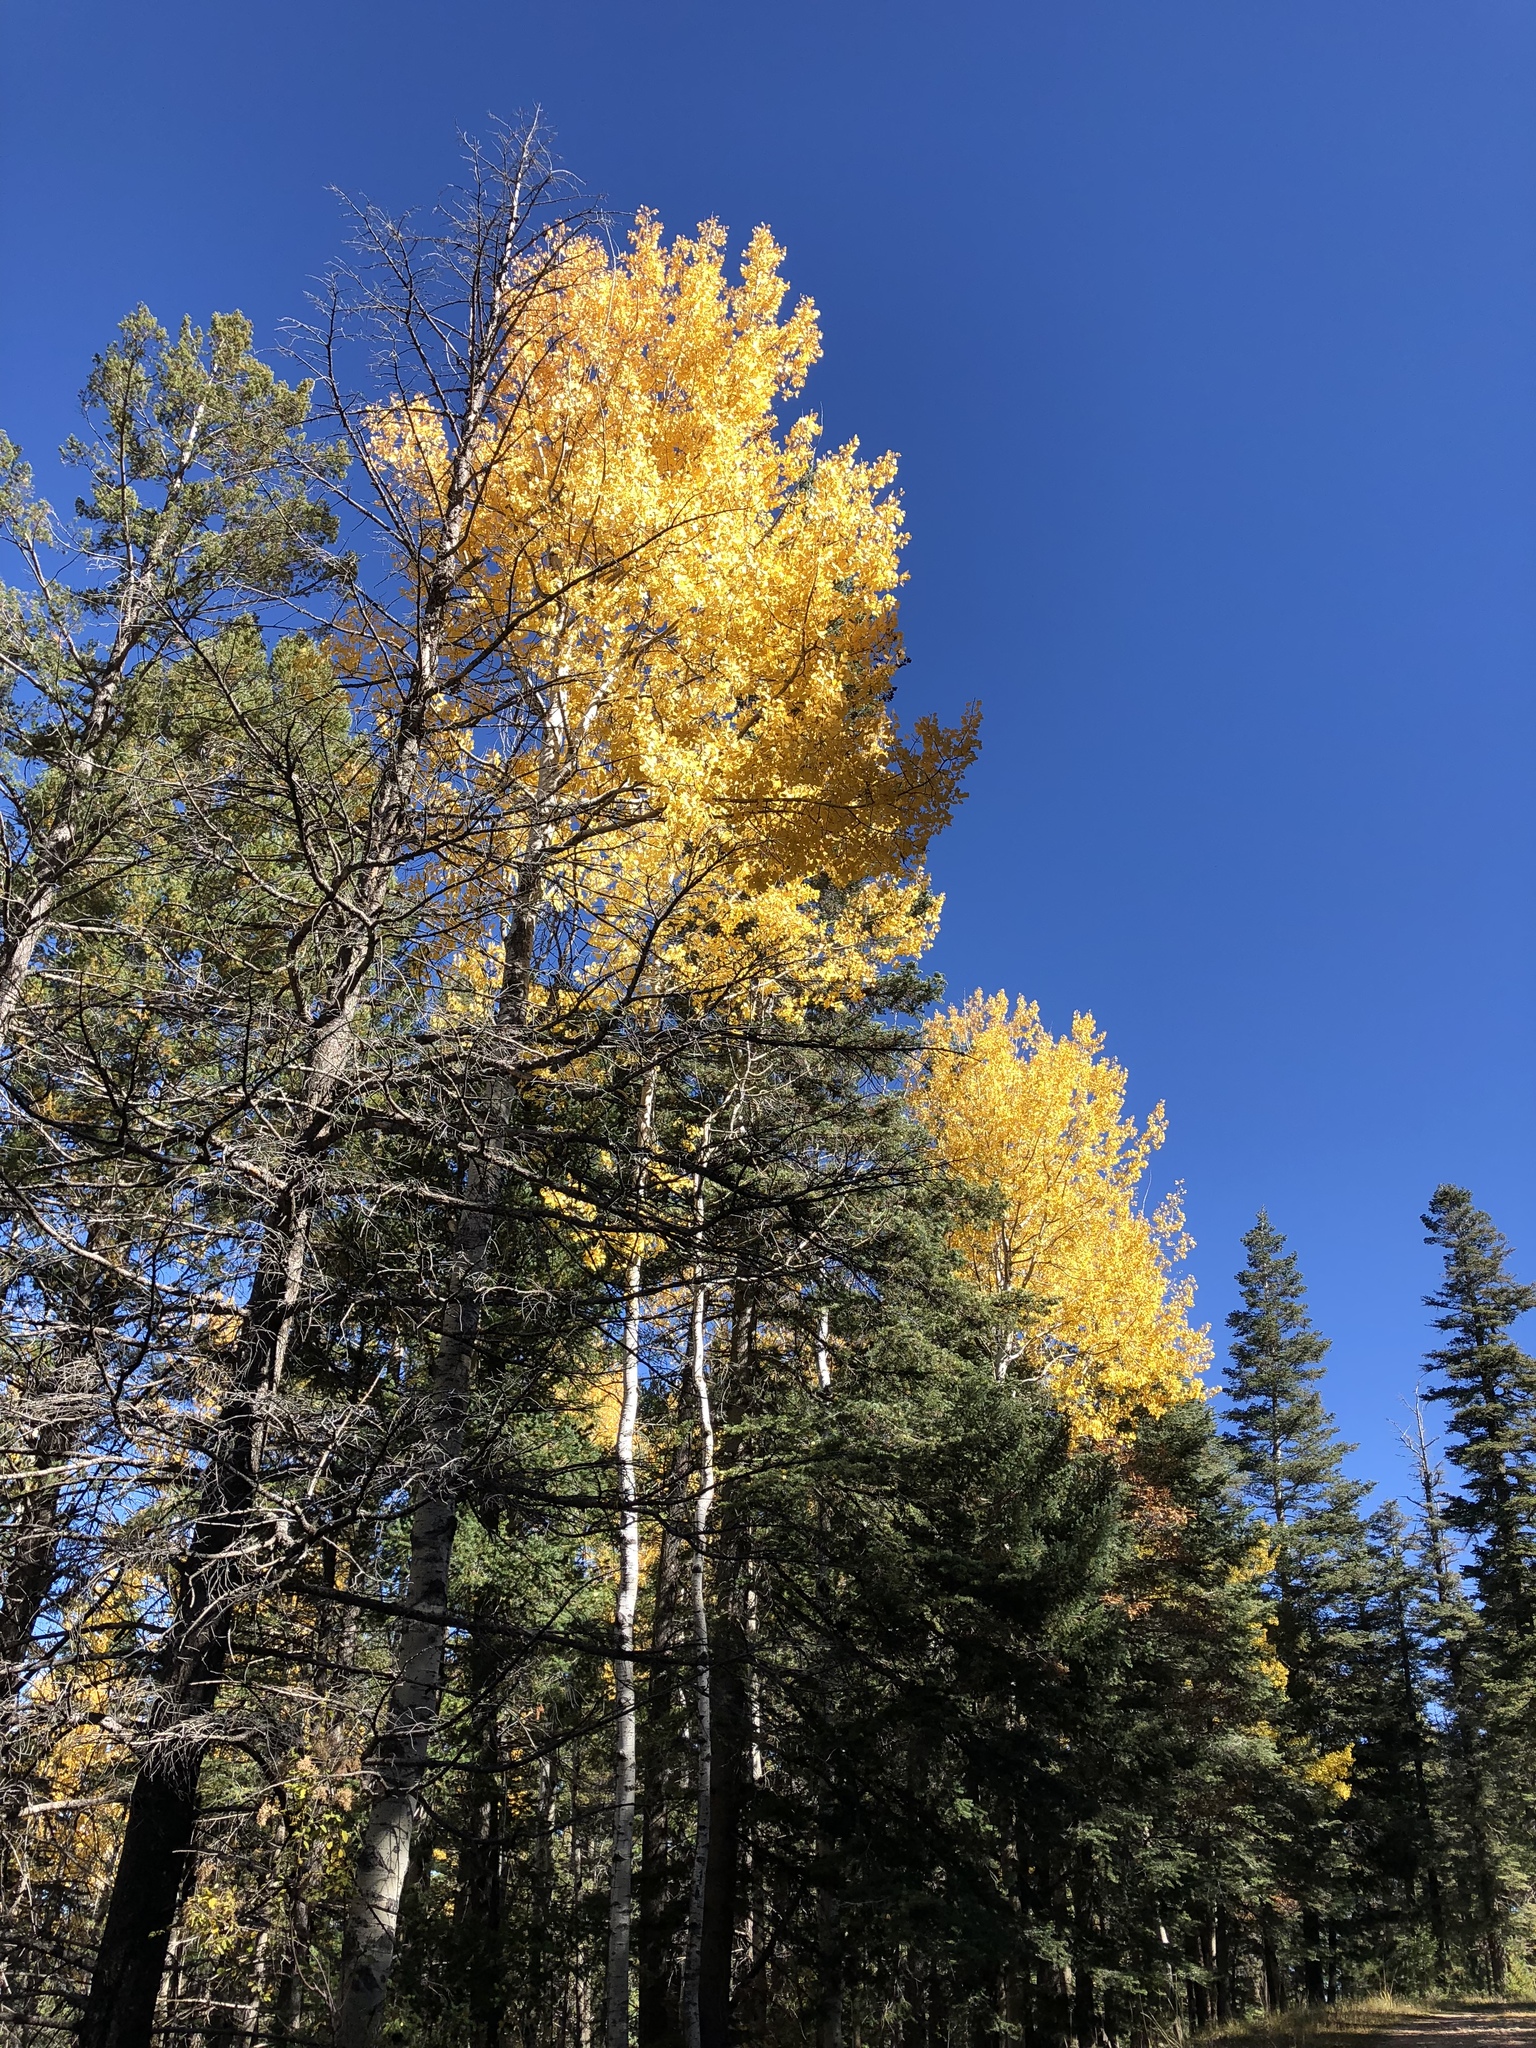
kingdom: Plantae
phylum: Tracheophyta
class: Magnoliopsida
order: Malpighiales
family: Salicaceae
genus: Populus
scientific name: Populus tremuloides
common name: Quaking aspen
